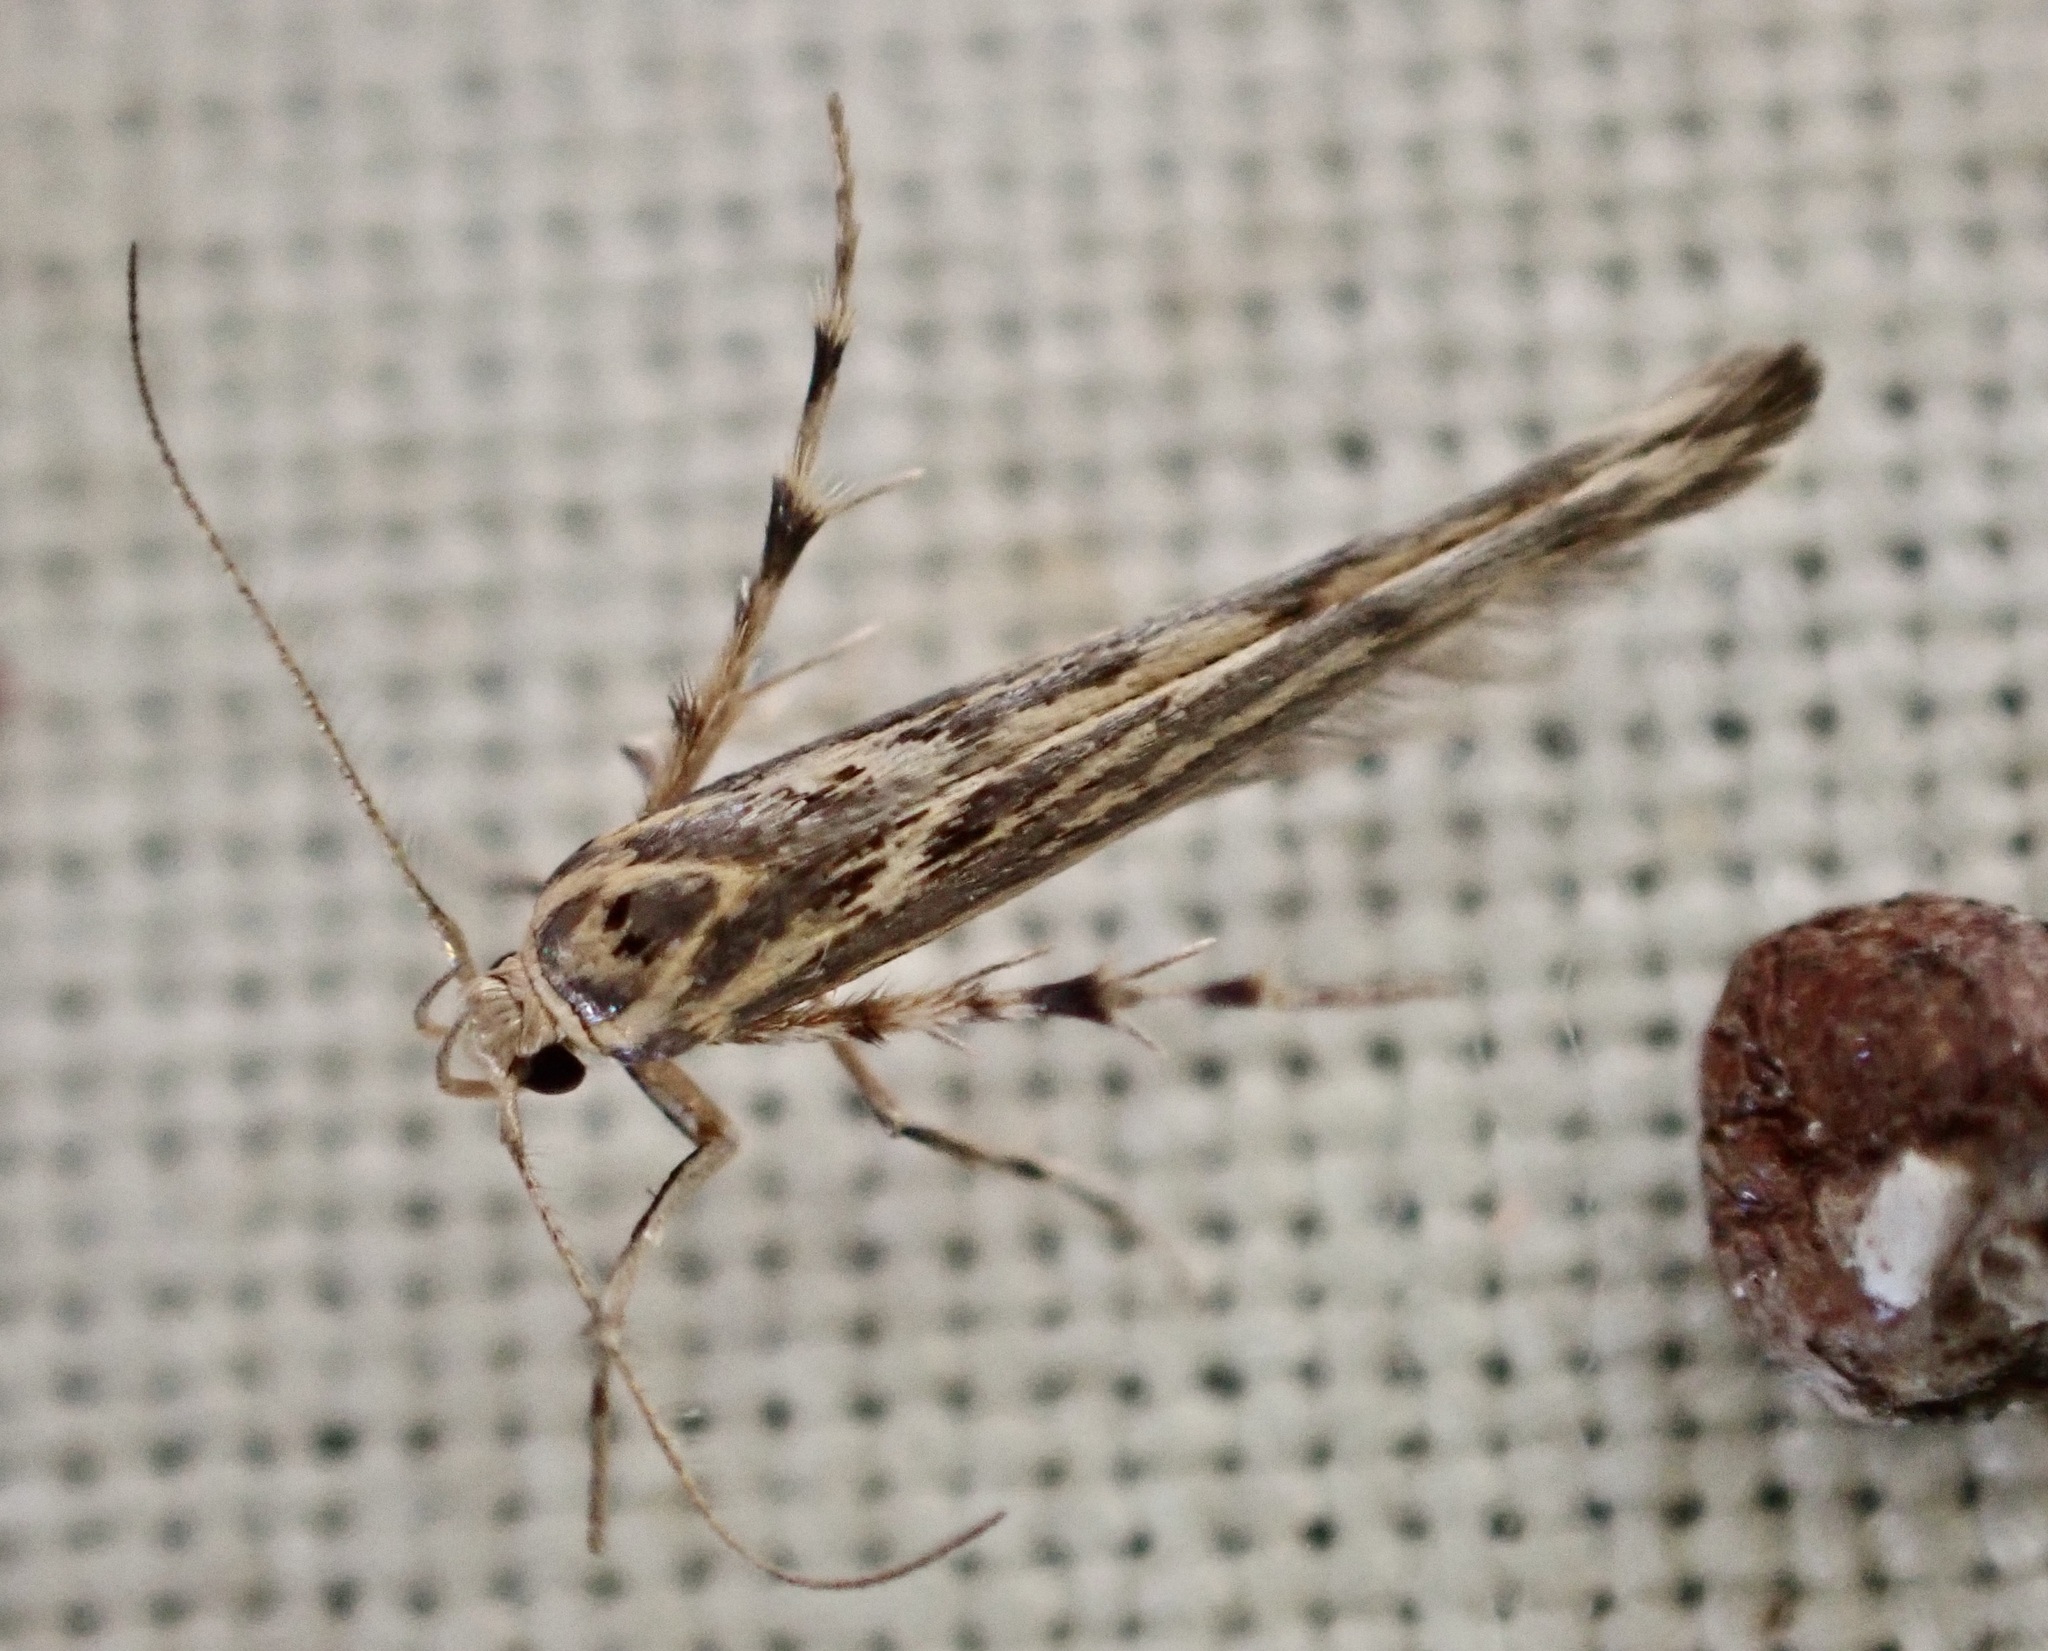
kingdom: Animalia
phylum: Arthropoda
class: Insecta
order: Lepidoptera
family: Stathmopodidae
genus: Stathmopoda
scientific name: Stathmopoda plumbiflua
